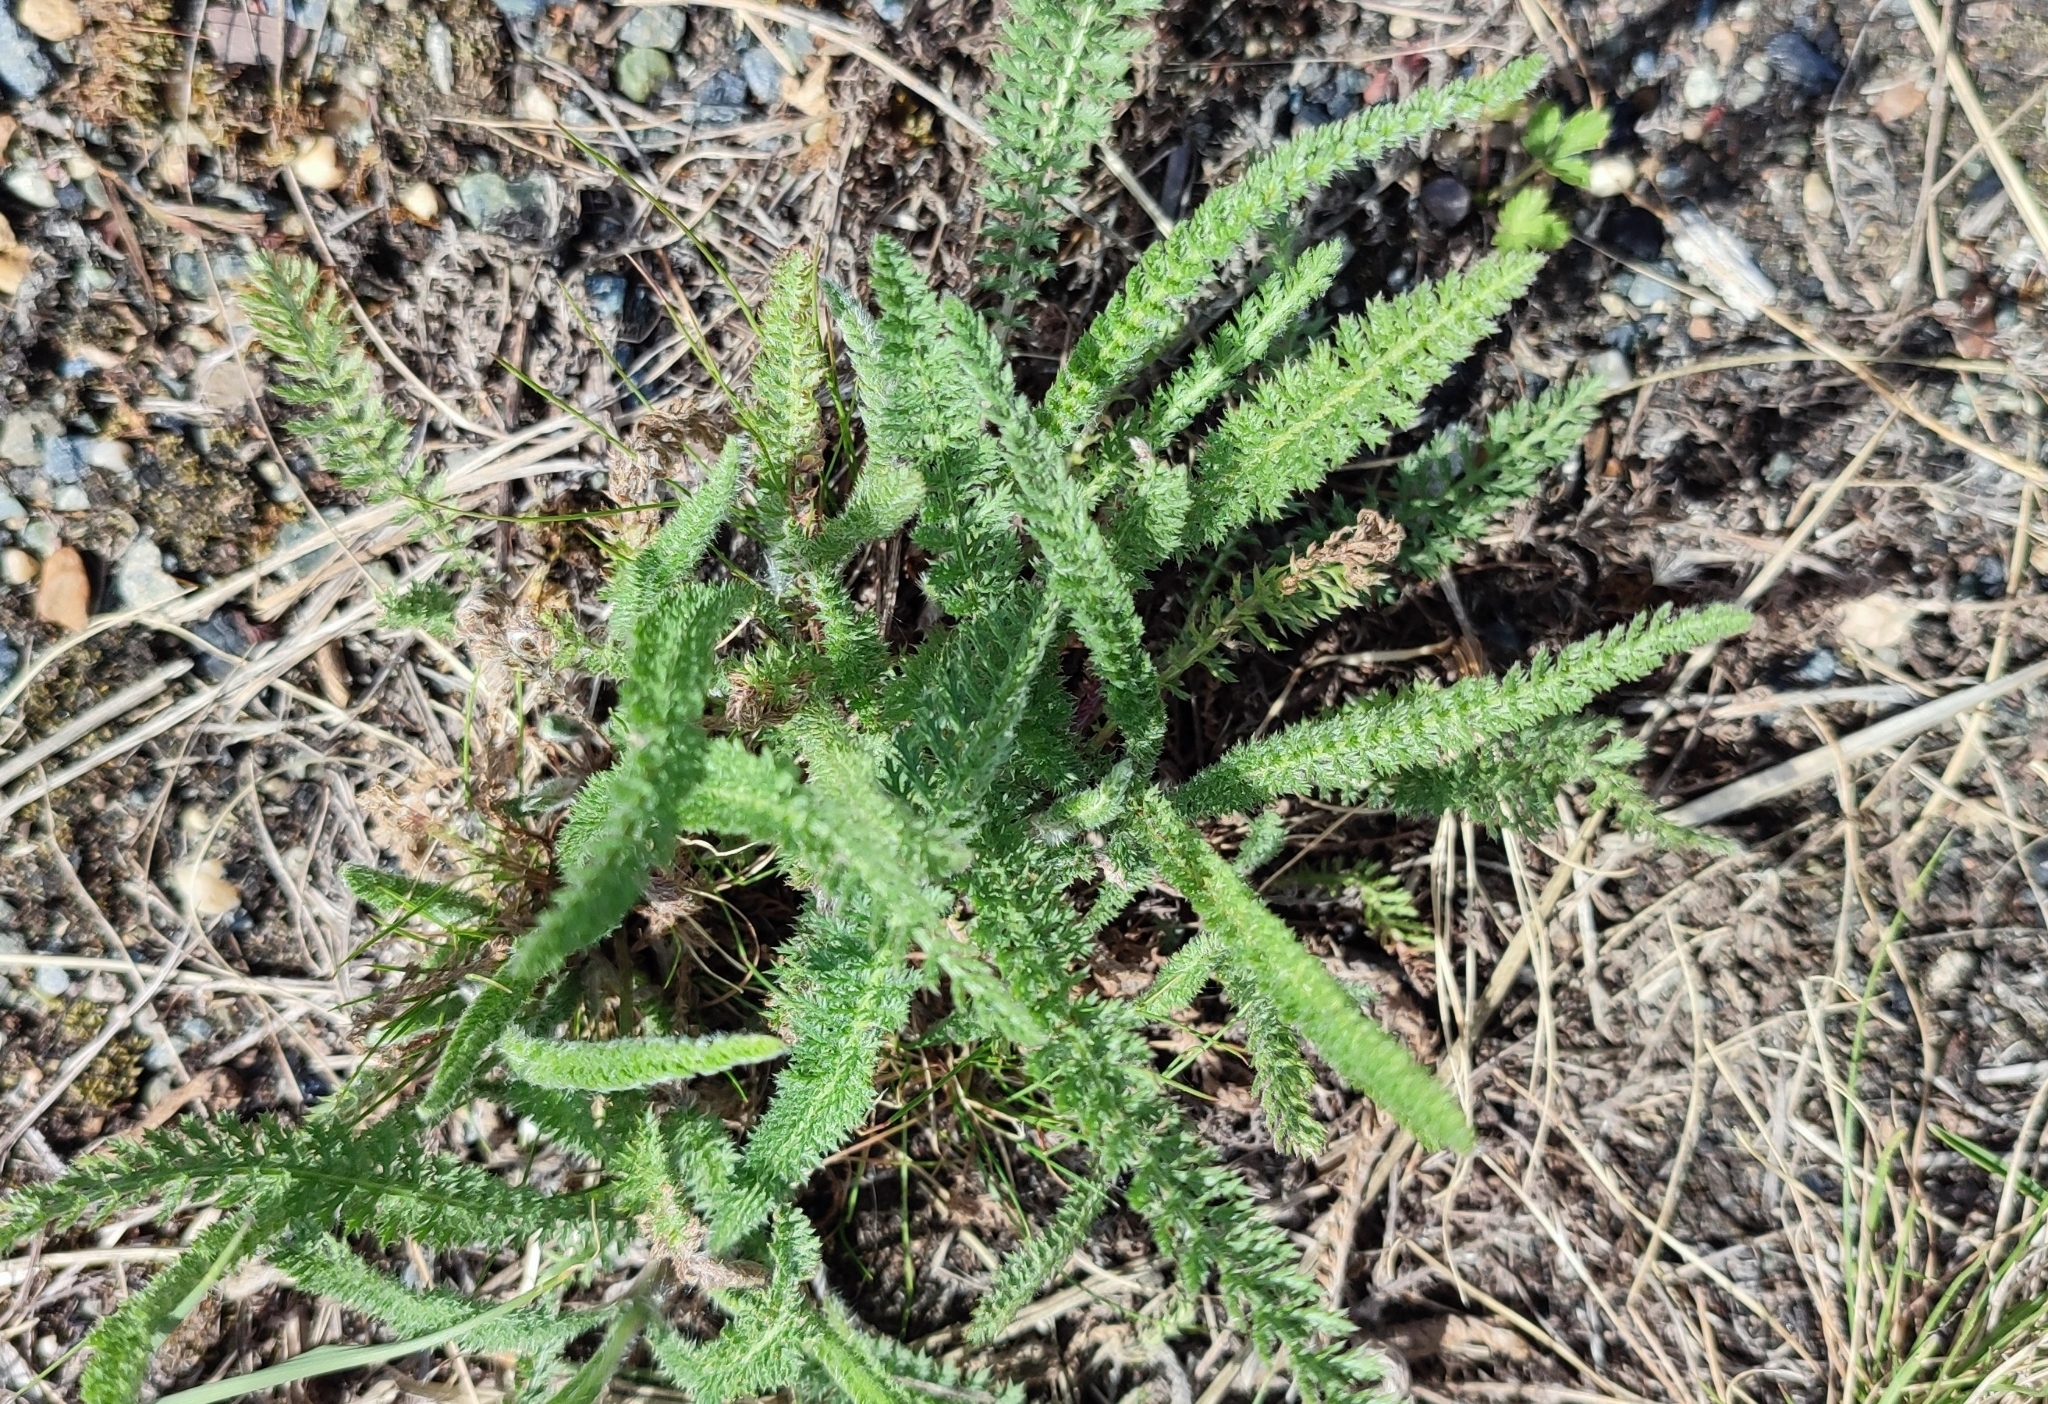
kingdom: Plantae
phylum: Tracheophyta
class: Magnoliopsida
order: Asterales
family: Asteraceae
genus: Achillea
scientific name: Achillea millefolium
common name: Yarrow
